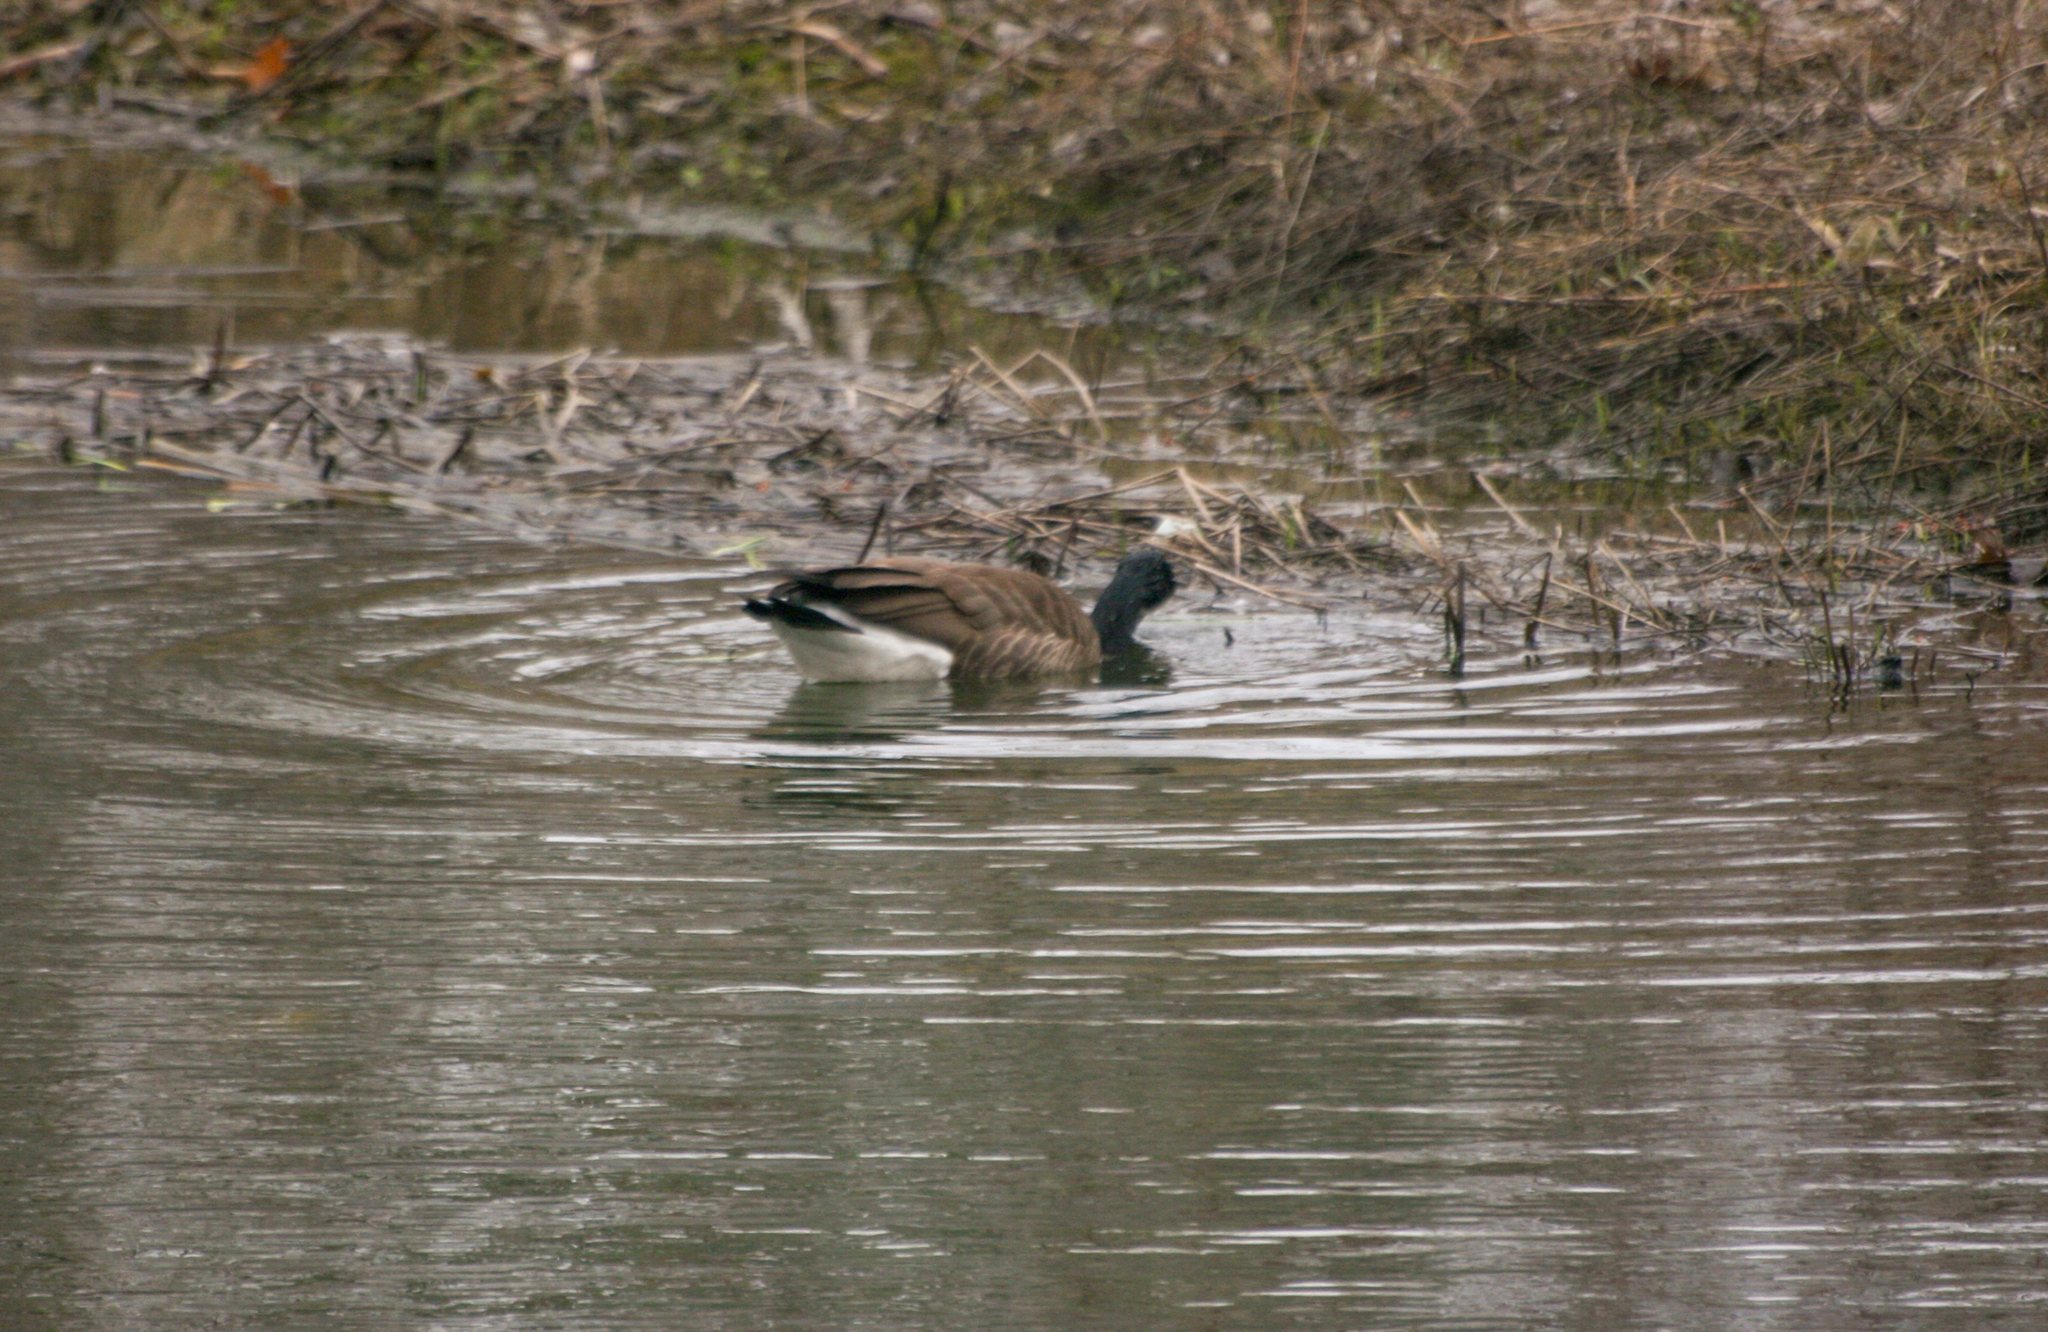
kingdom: Animalia
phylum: Chordata
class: Aves
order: Anseriformes
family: Anatidae
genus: Branta
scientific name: Branta canadensis
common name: Canada goose
